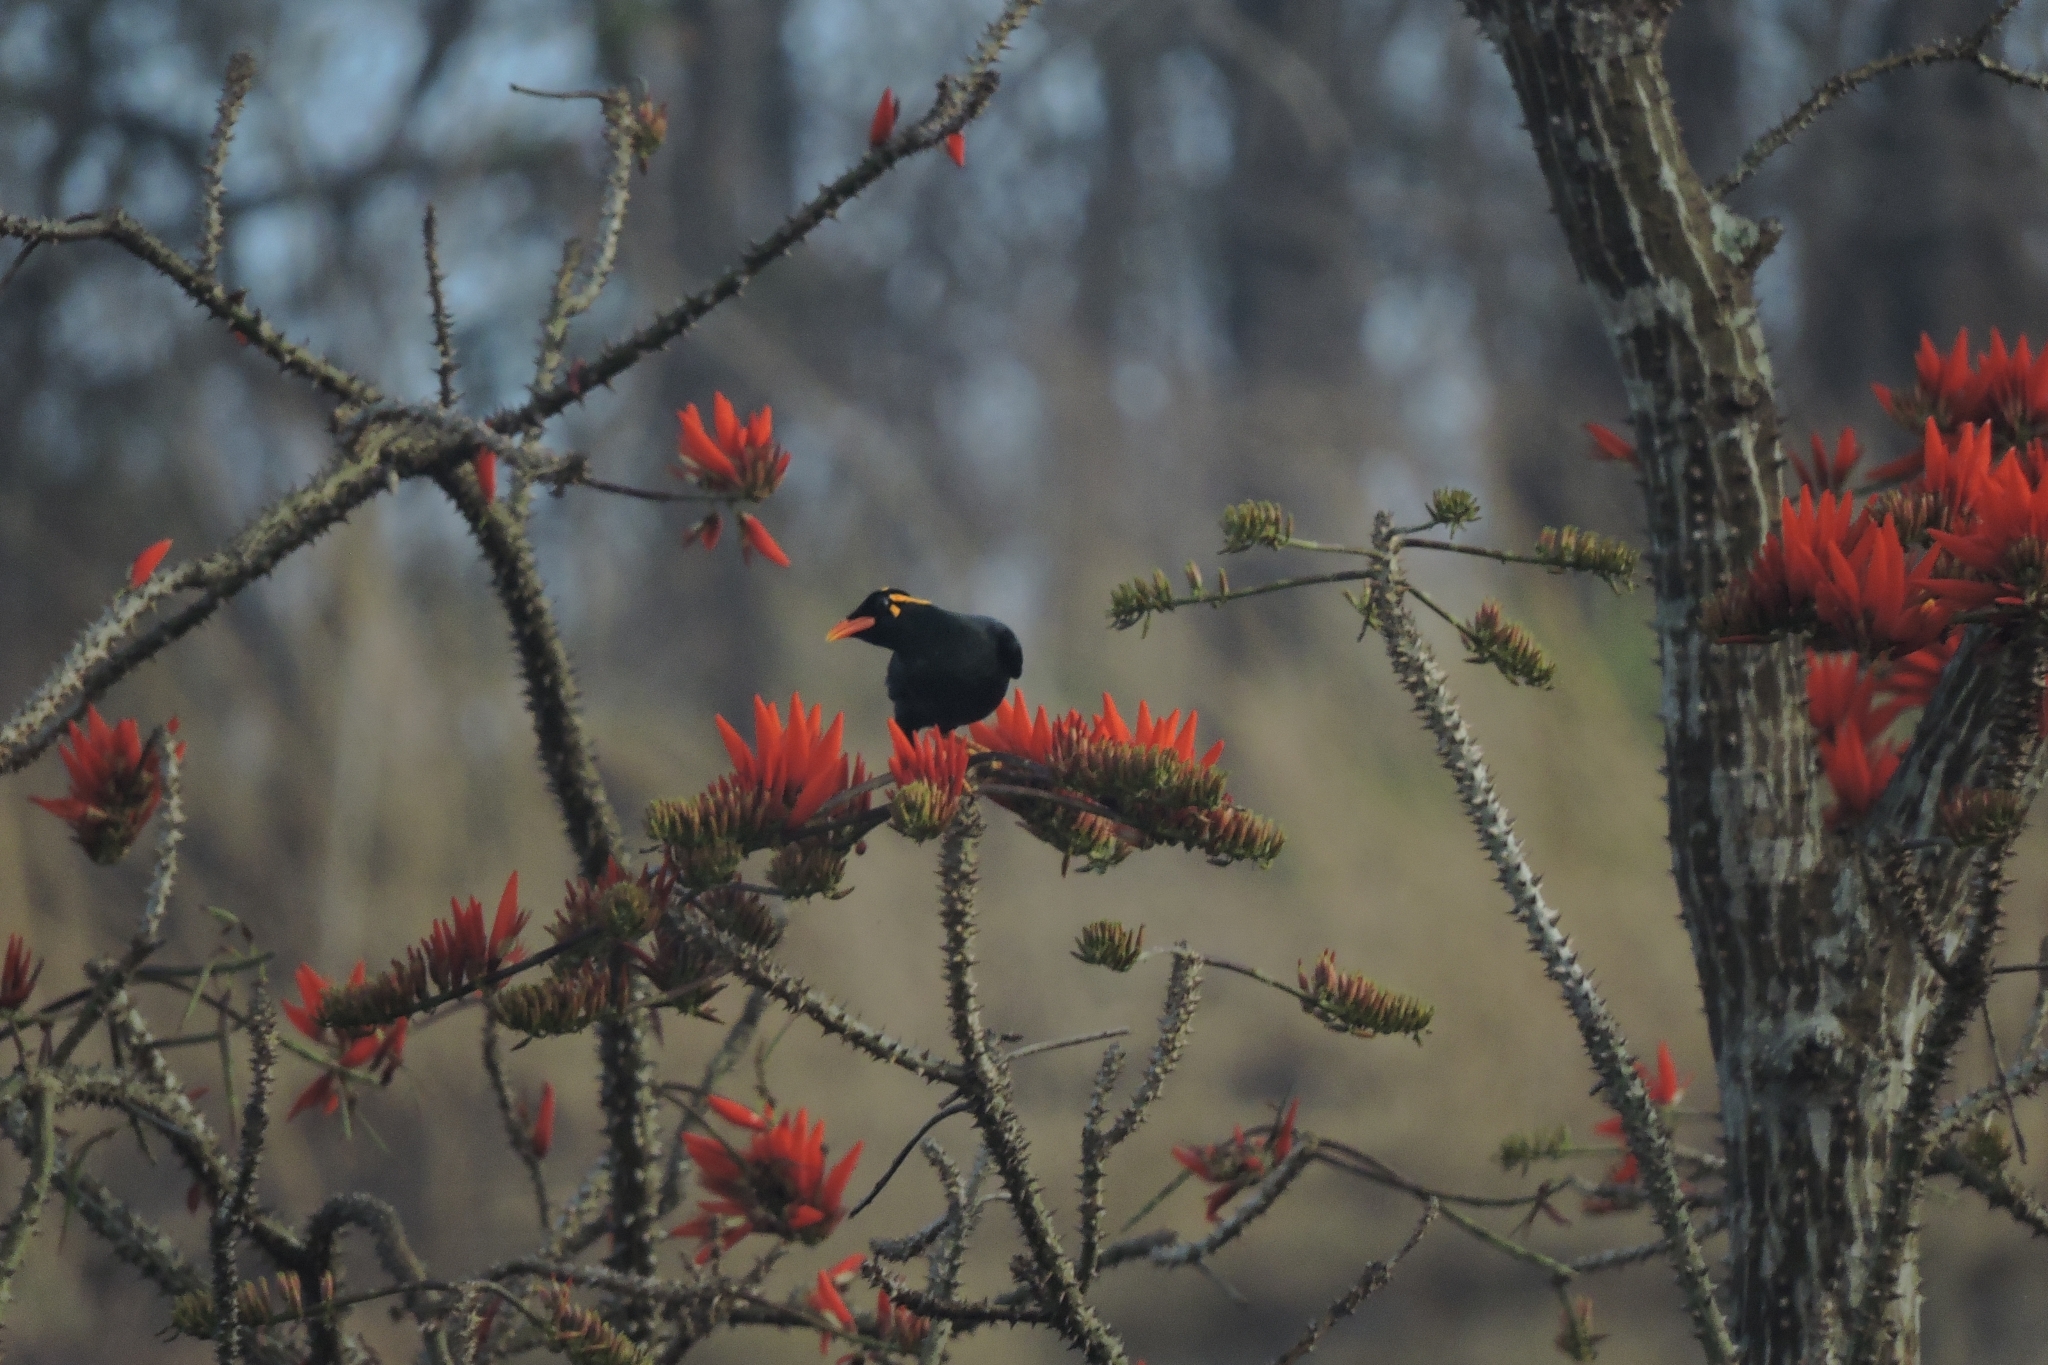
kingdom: Animalia
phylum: Chordata
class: Aves
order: Passeriformes
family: Sturnidae
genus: Gracula
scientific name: Gracula indica
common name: Southern hill myna
